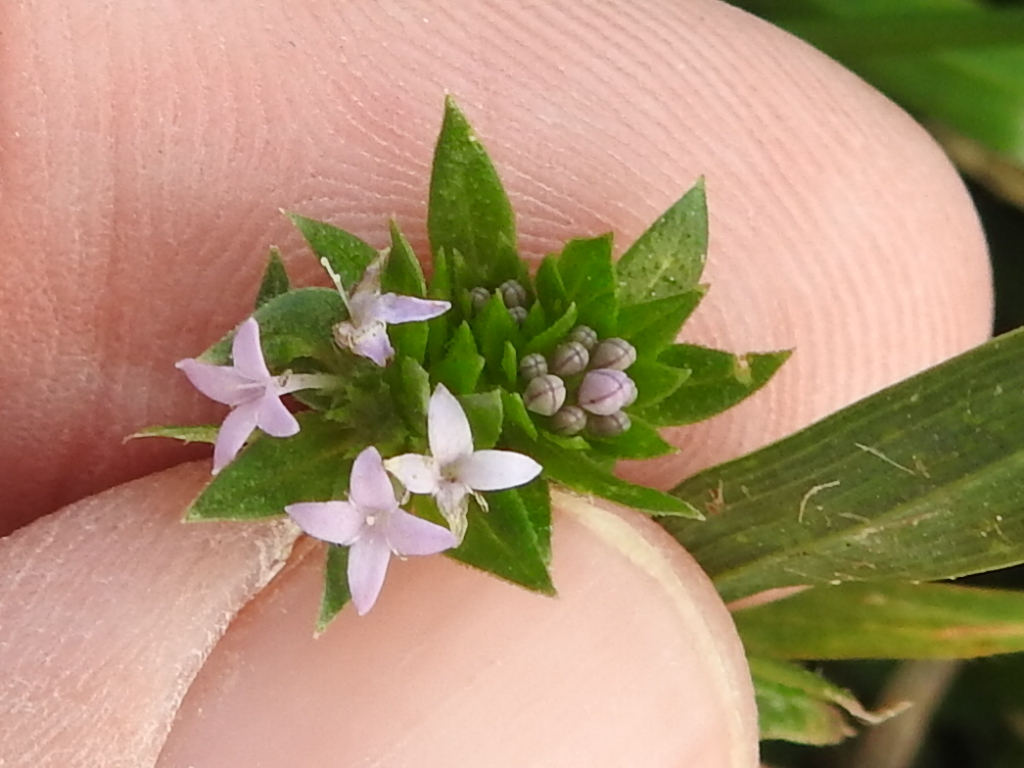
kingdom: Plantae
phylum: Tracheophyta
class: Magnoliopsida
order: Gentianales
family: Rubiaceae
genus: Sherardia
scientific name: Sherardia arvensis
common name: Field madder
